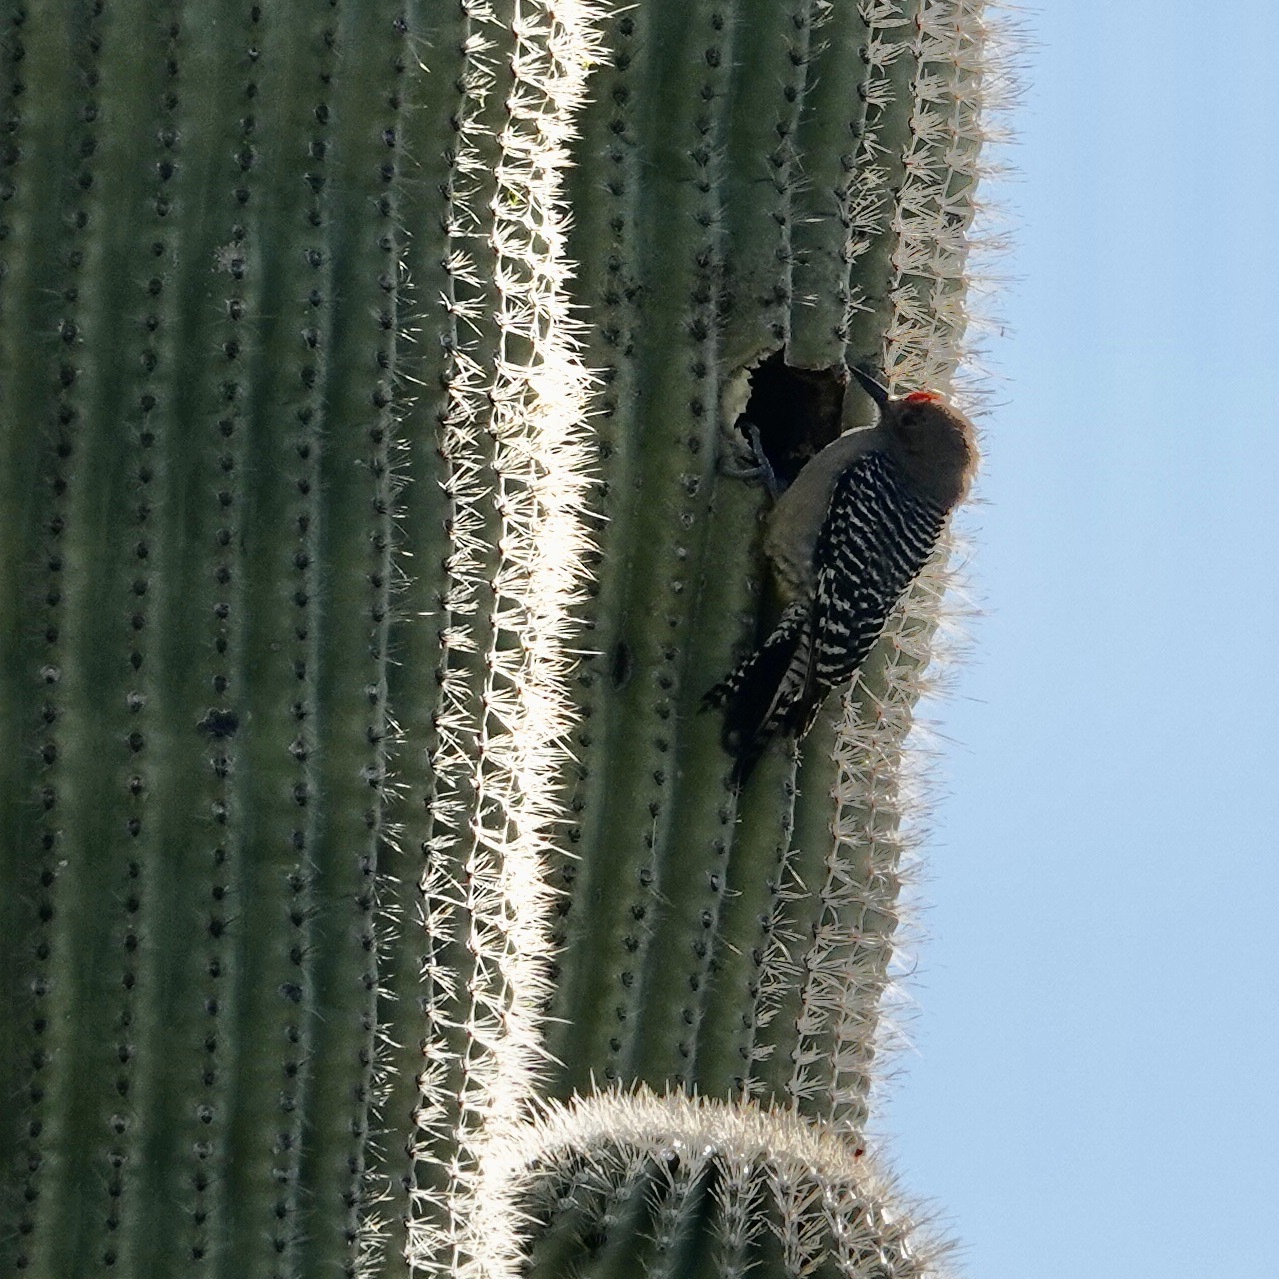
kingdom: Animalia
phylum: Chordata
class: Aves
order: Piciformes
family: Picidae
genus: Melanerpes
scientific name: Melanerpes uropygialis
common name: Gila woodpecker
